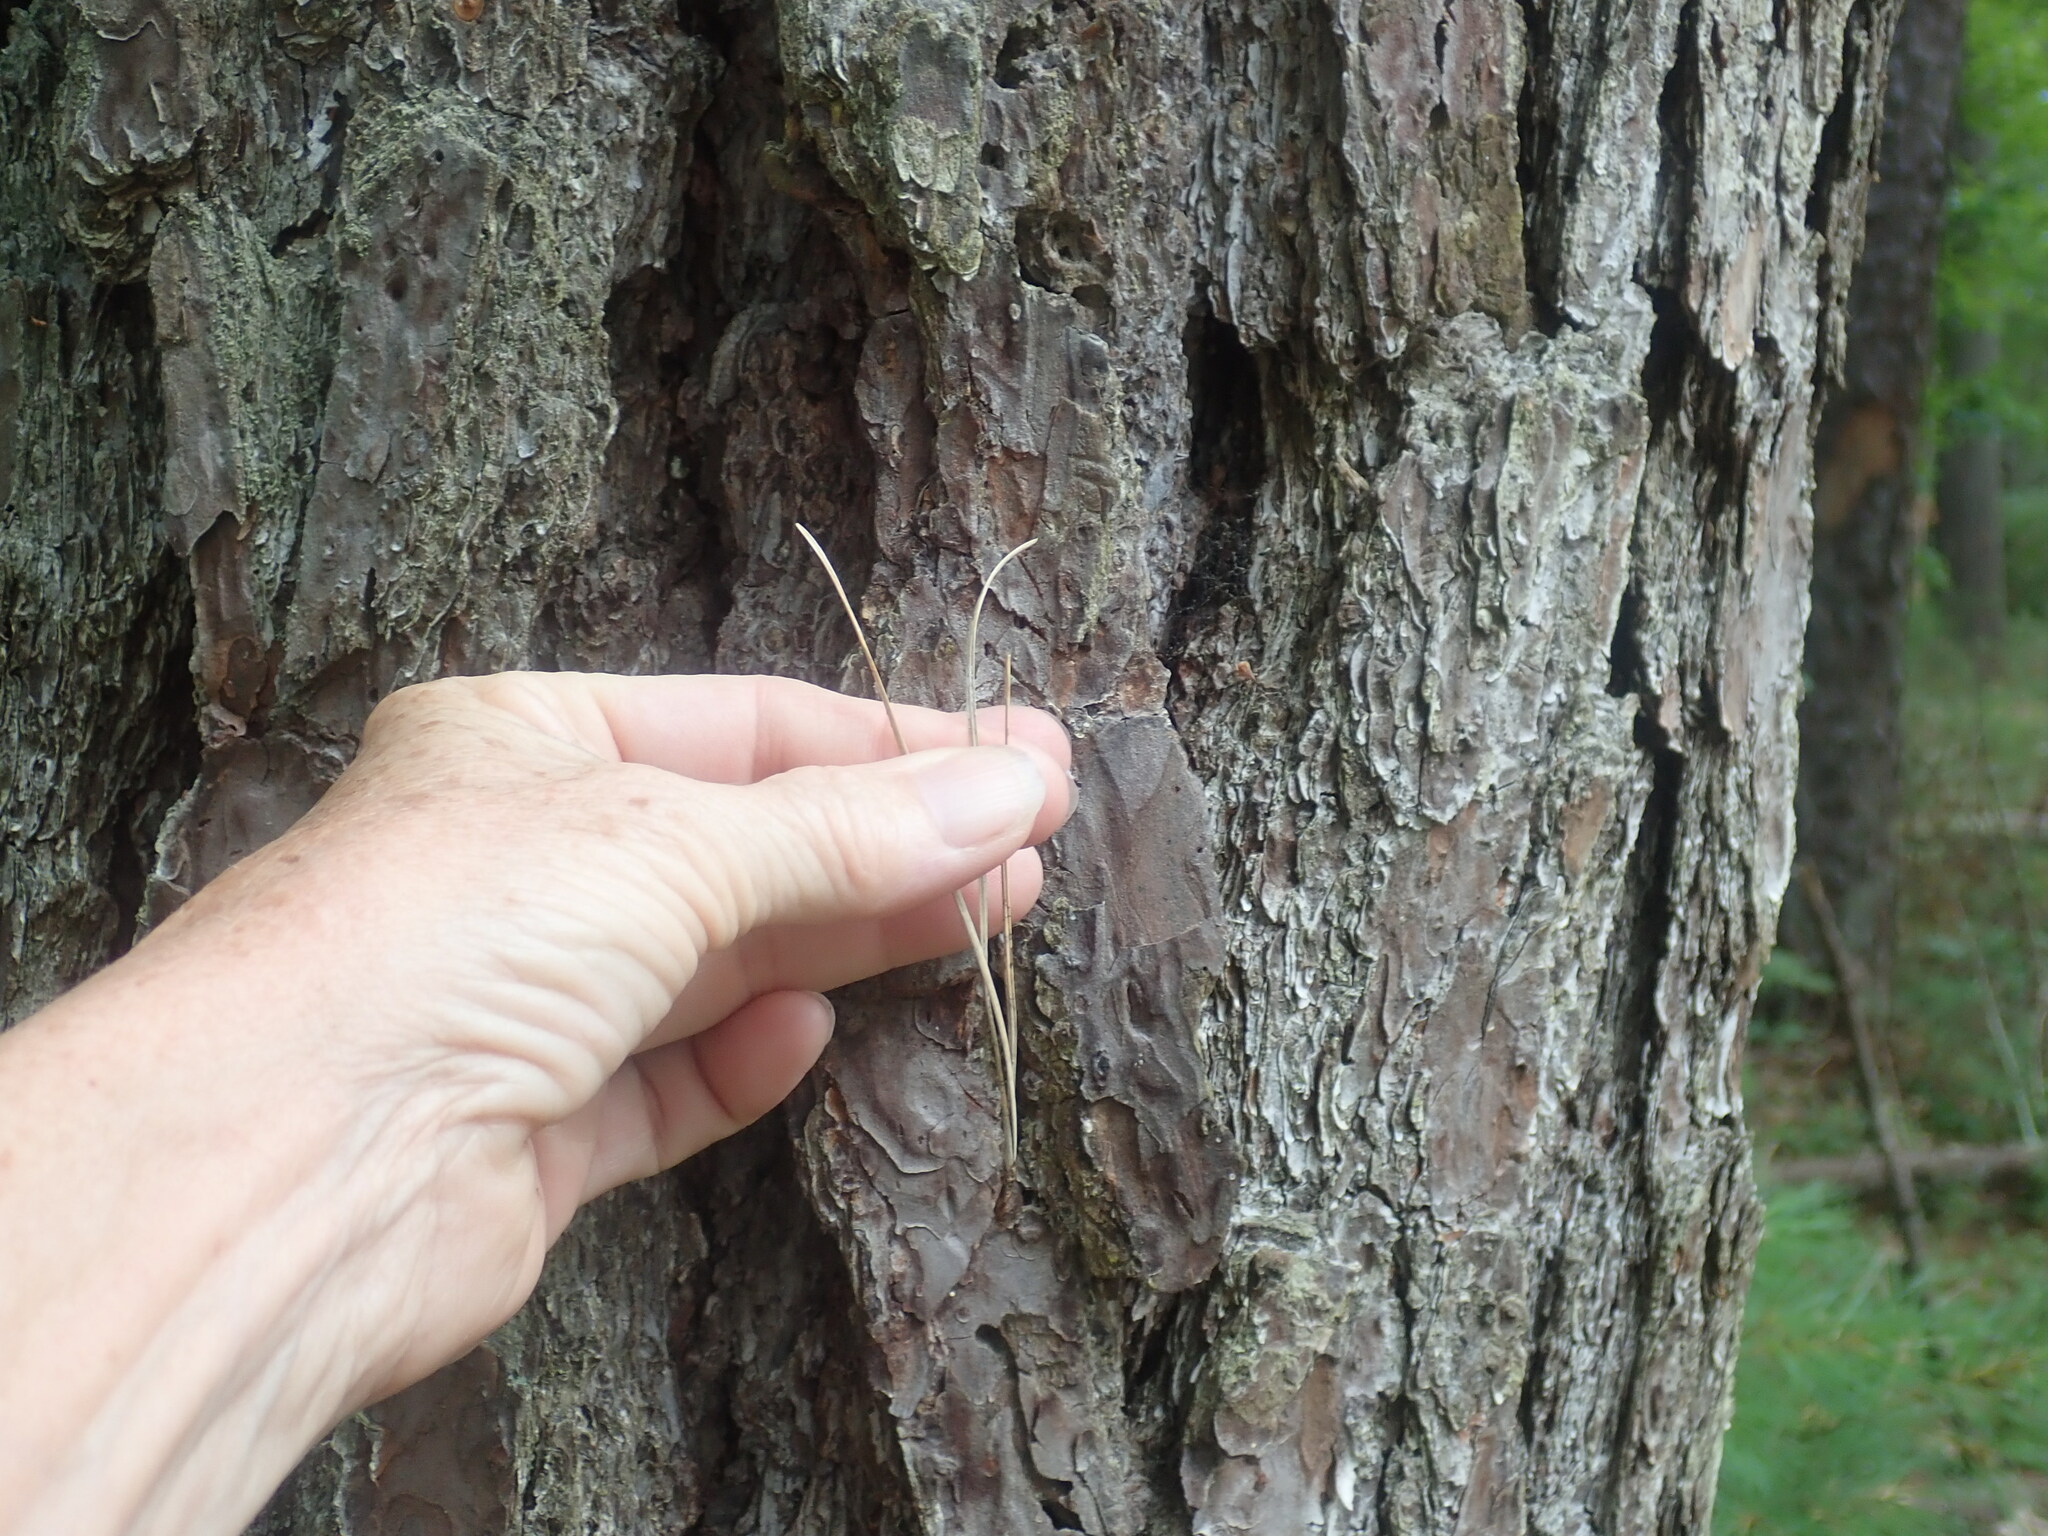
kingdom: Plantae
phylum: Tracheophyta
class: Pinopsida
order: Pinales
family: Pinaceae
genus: Pinus
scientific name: Pinus rigida
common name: Pitch pine
